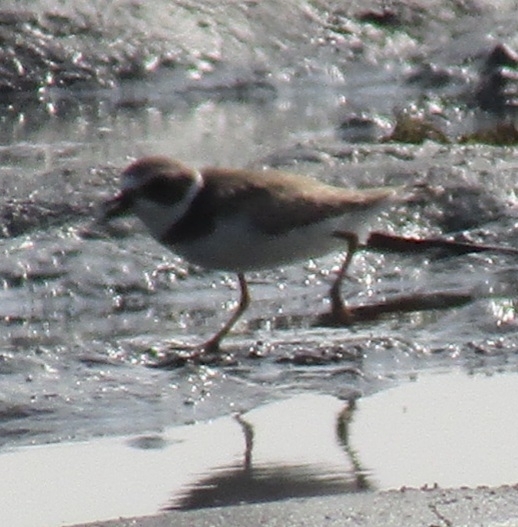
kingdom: Animalia
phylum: Chordata
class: Aves
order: Charadriiformes
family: Charadriidae
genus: Charadrius
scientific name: Charadrius semipalmatus
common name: Semipalmated plover
